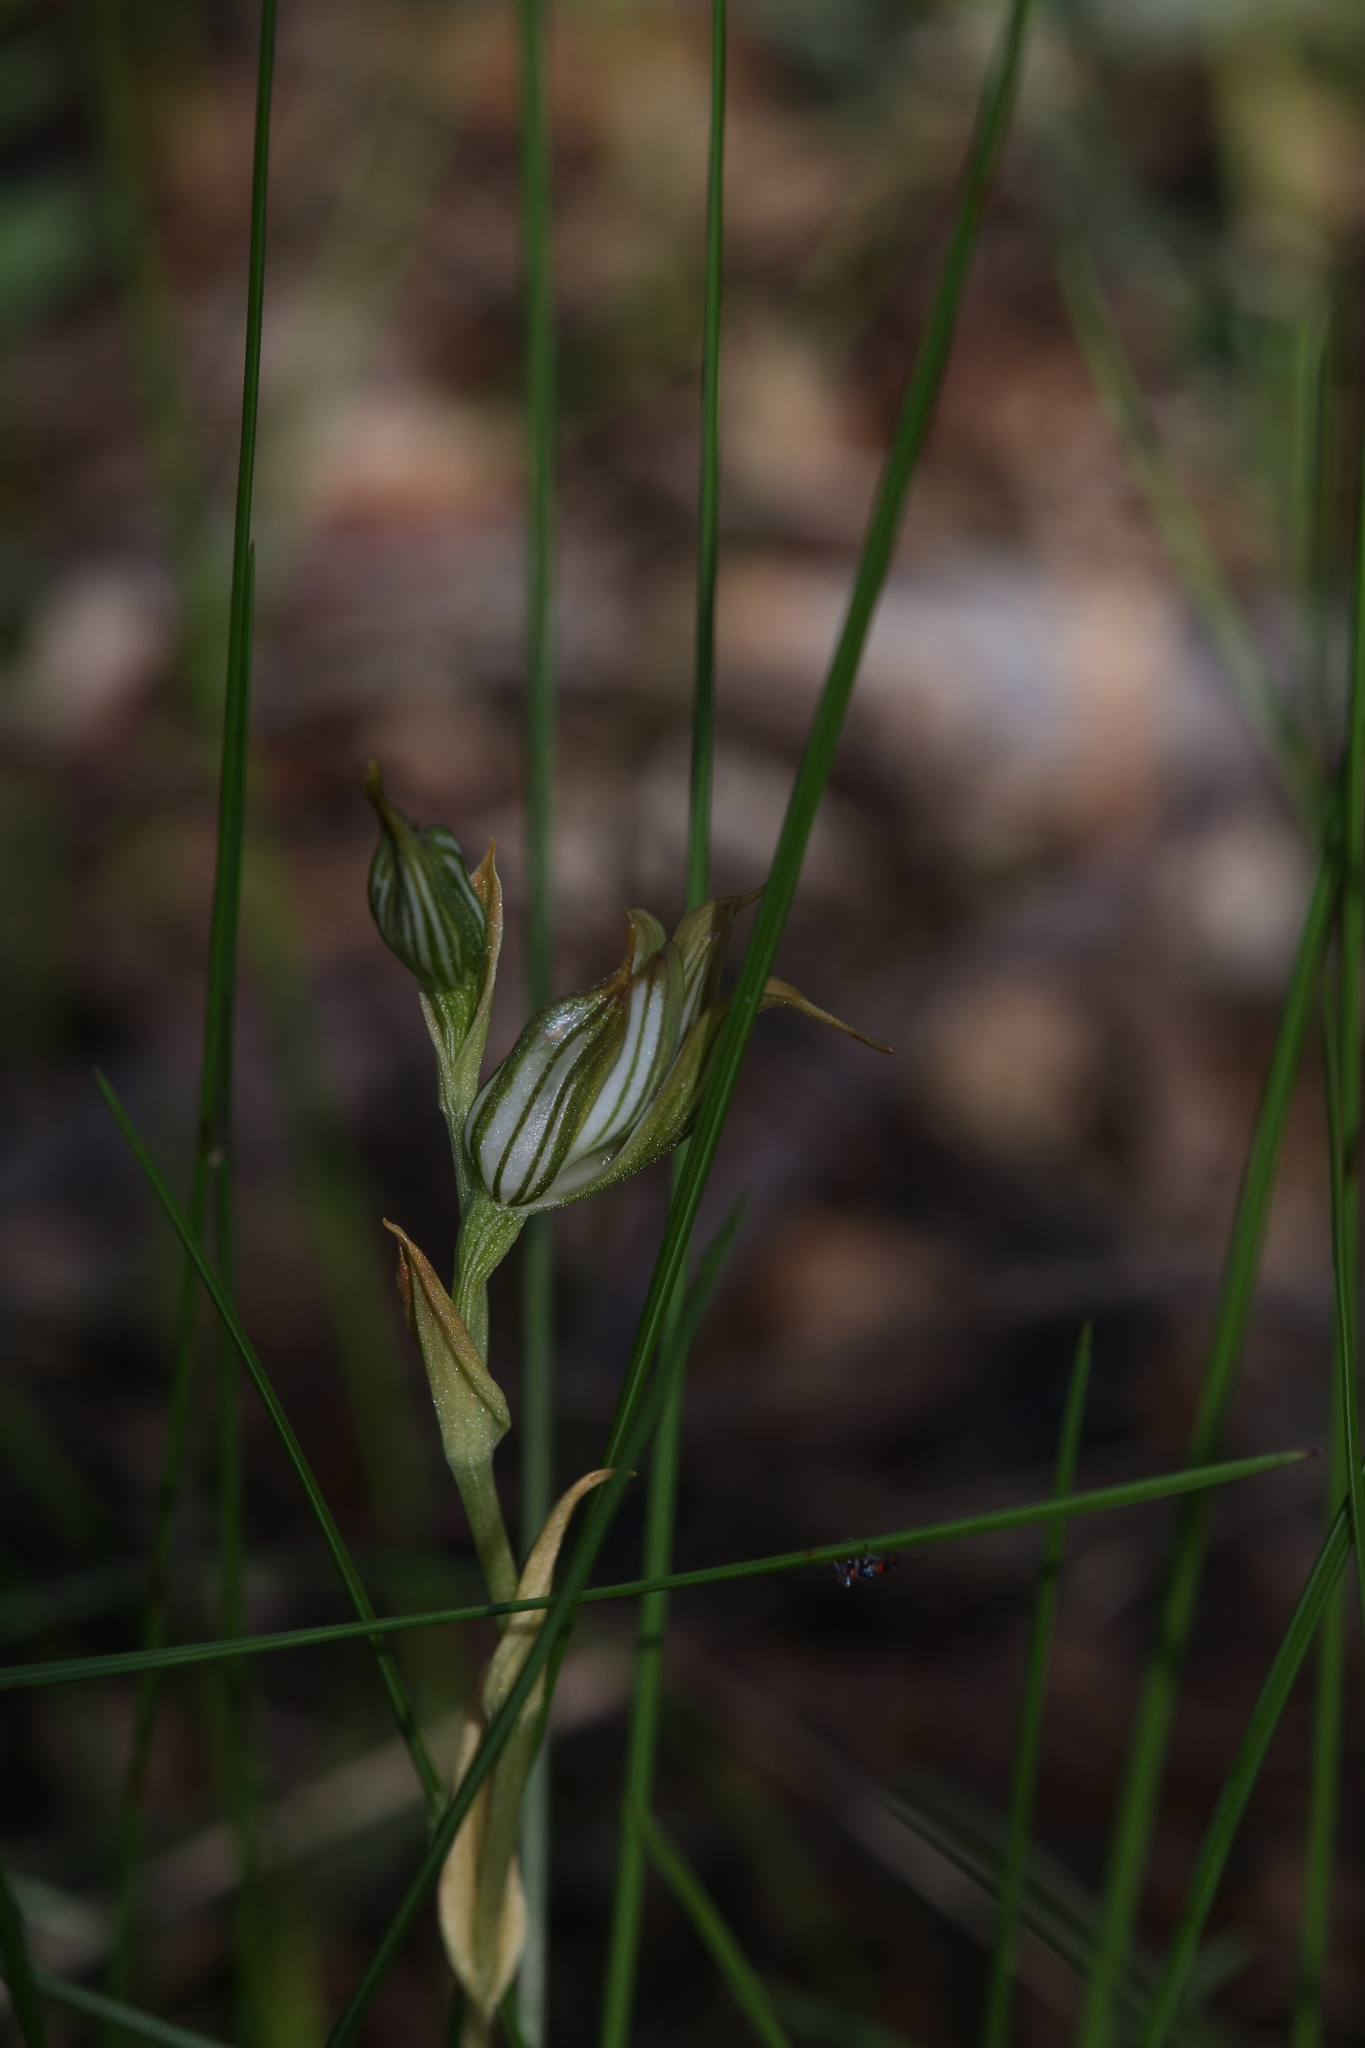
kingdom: Plantae
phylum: Tracheophyta
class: Liliopsida
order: Asparagales
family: Orchidaceae
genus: Pterostylis
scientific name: Pterostylis recurva
